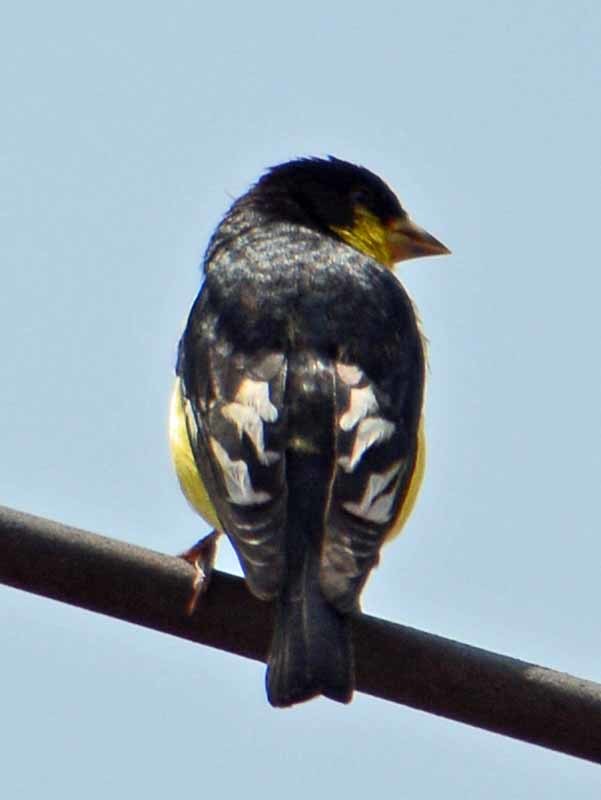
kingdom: Animalia
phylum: Chordata
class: Aves
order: Passeriformes
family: Fringillidae
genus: Spinus
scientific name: Spinus psaltria
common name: Lesser goldfinch
